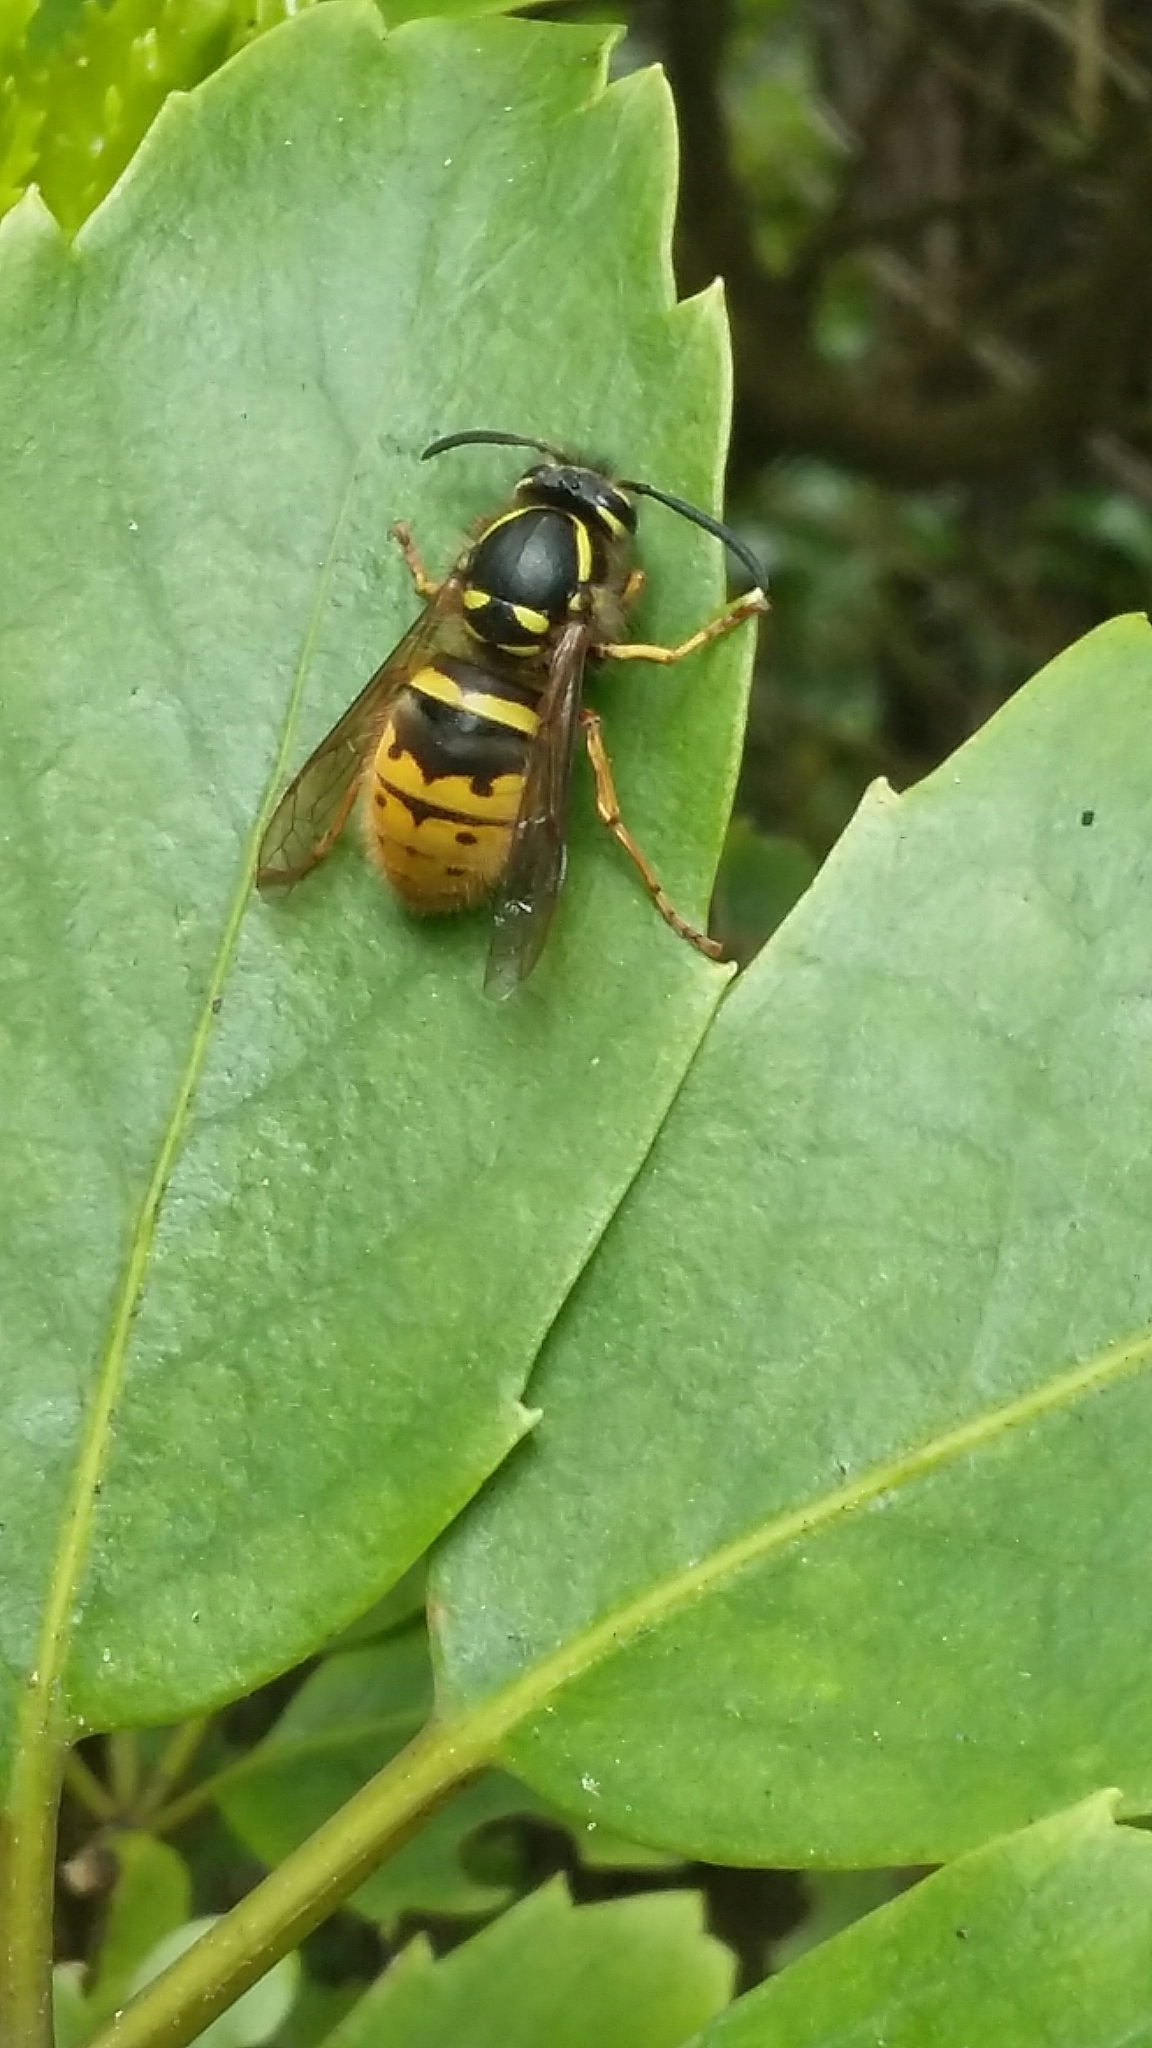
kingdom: Animalia
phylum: Arthropoda
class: Insecta
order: Hymenoptera
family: Vespidae
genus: Vespula
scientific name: Vespula vulgaris
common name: Common wasp
